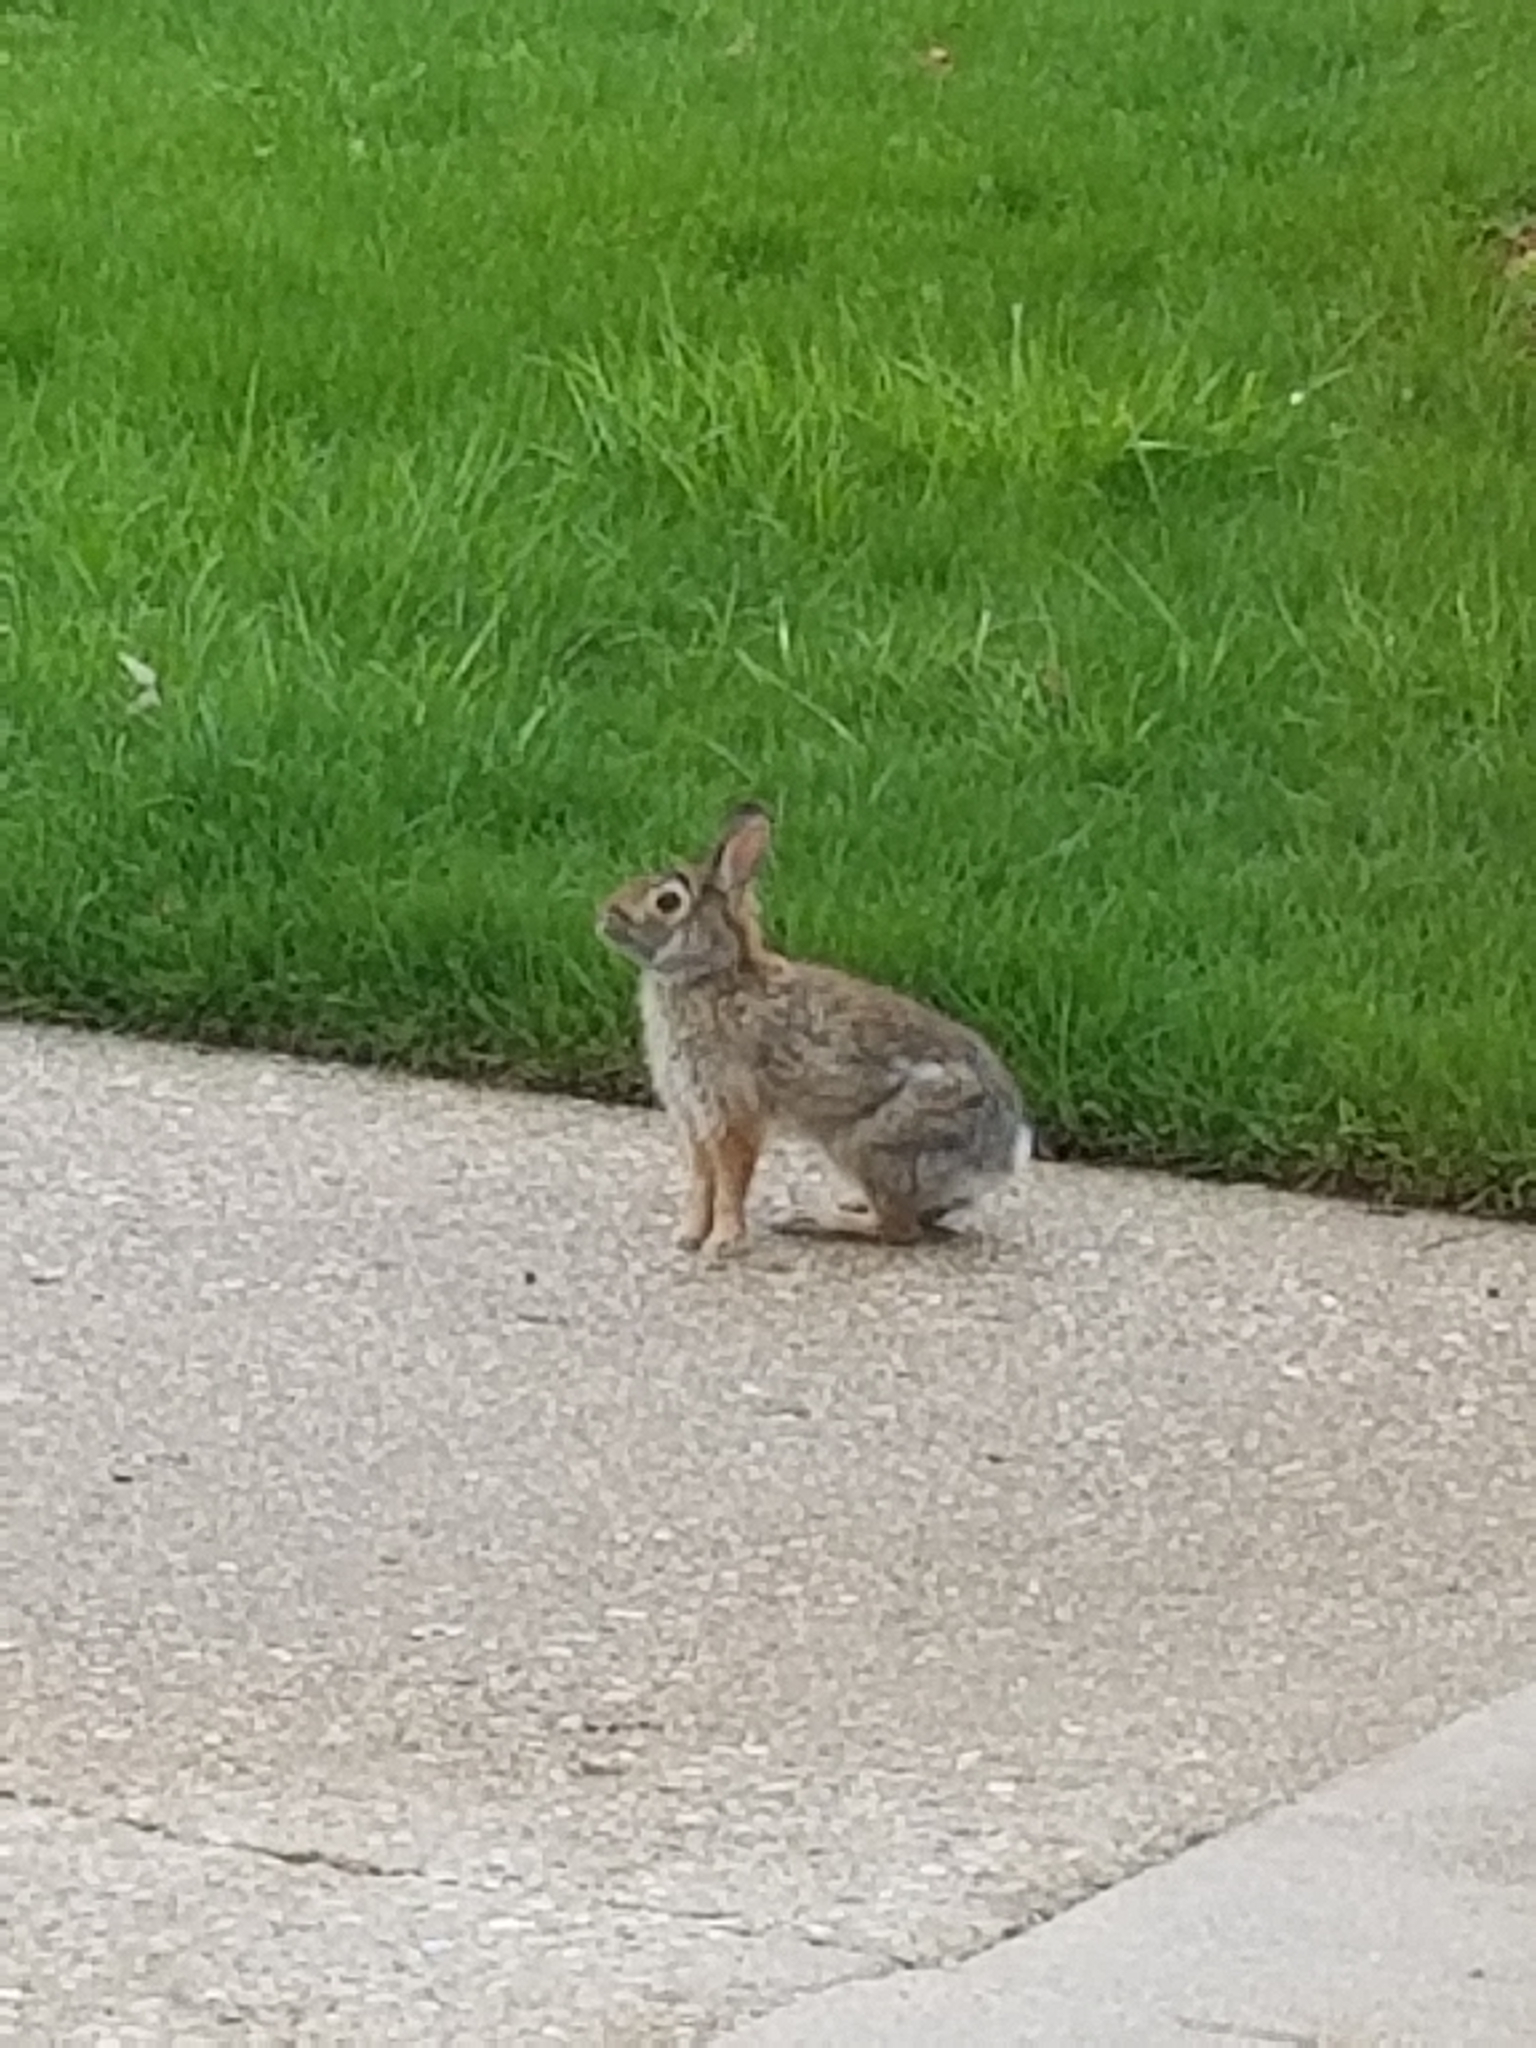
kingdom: Animalia
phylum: Chordata
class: Mammalia
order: Lagomorpha
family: Leporidae
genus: Sylvilagus
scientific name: Sylvilagus floridanus
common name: Eastern cottontail
